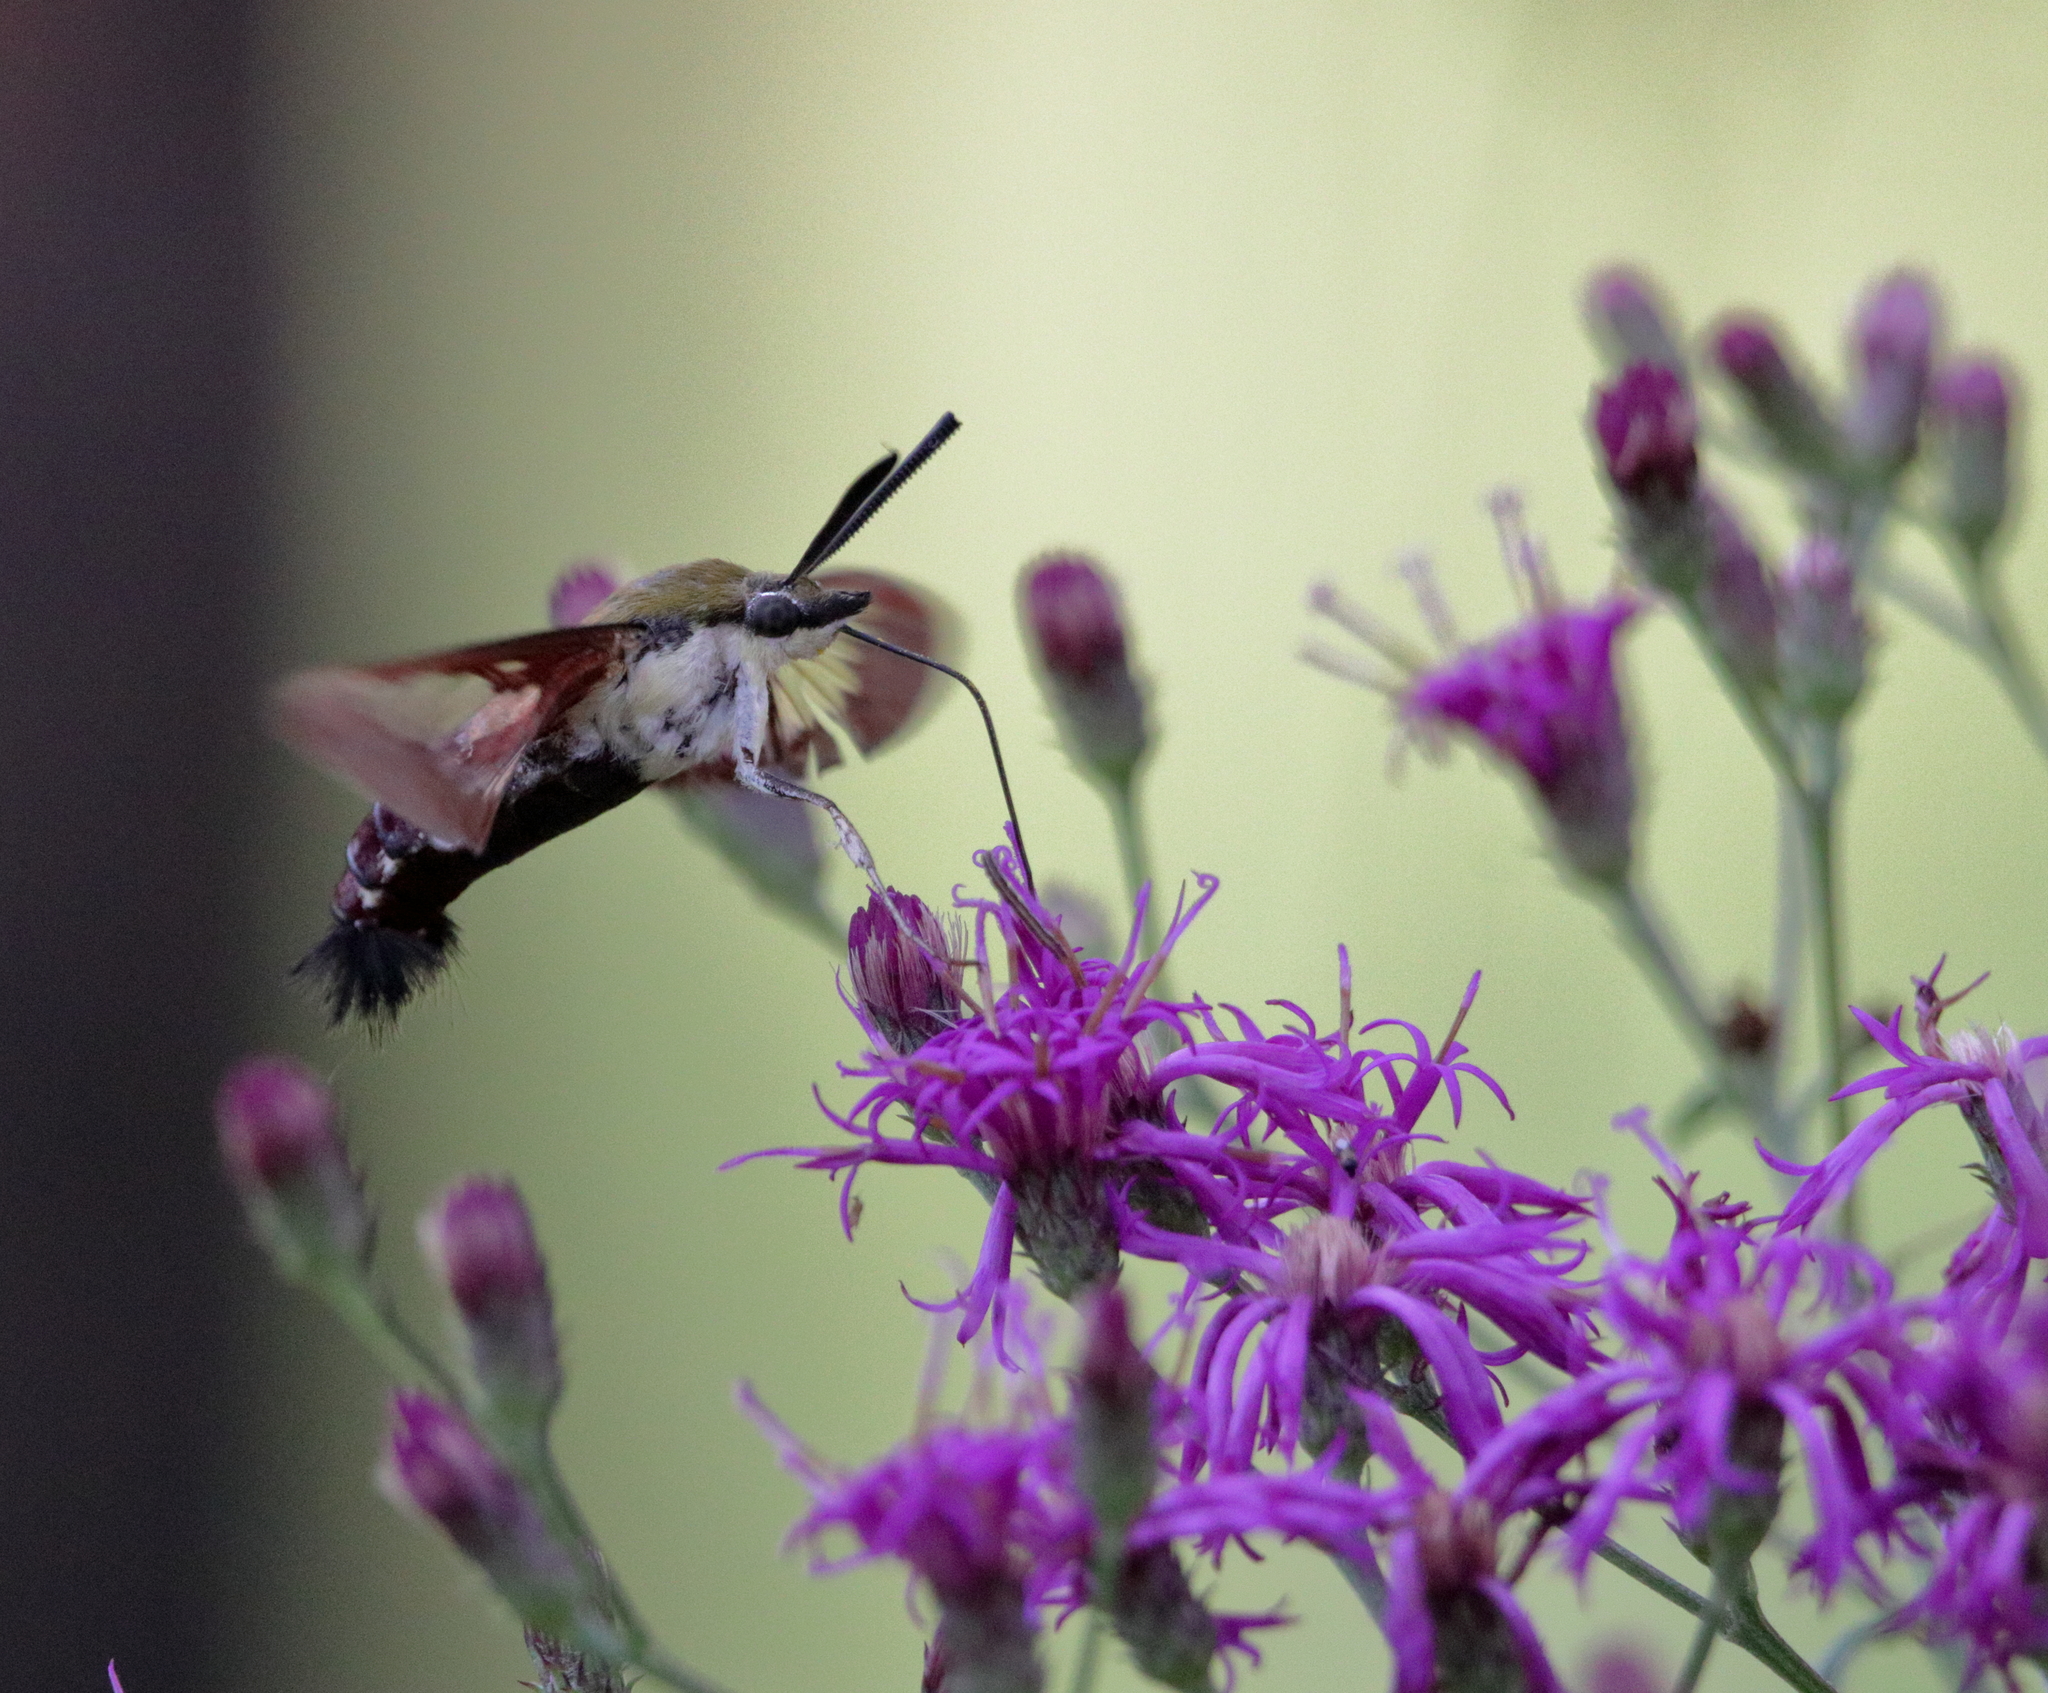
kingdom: Animalia
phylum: Arthropoda
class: Insecta
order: Lepidoptera
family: Sphingidae
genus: Hemaris
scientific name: Hemaris thysbe
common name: Common clear-wing
